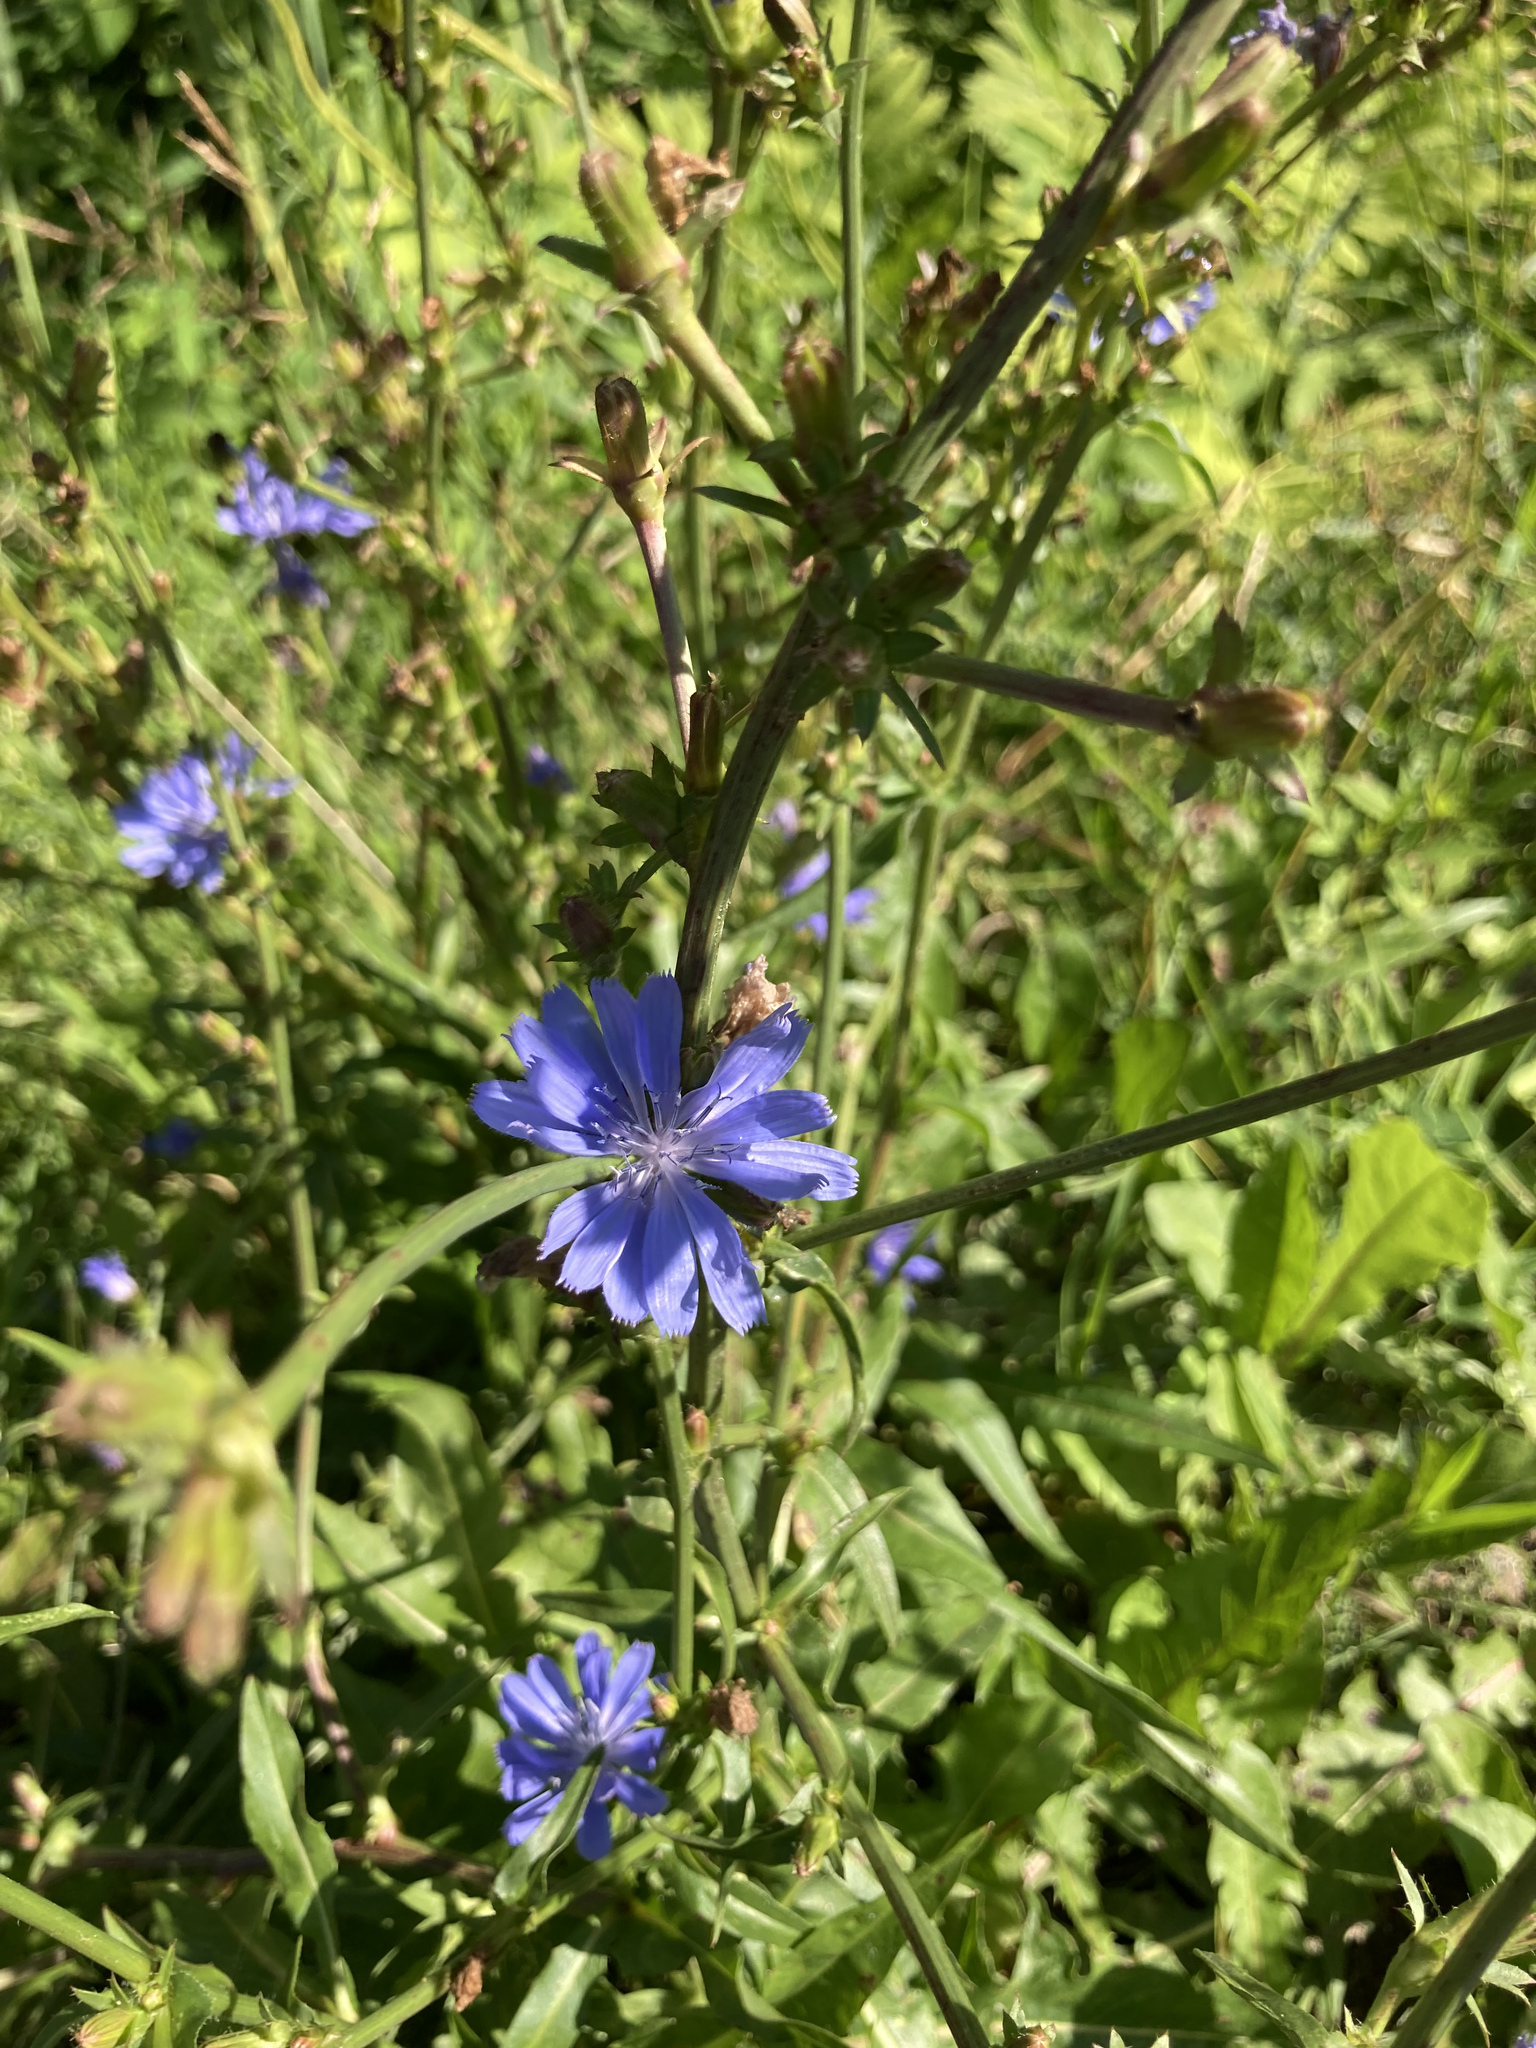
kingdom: Plantae
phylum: Tracheophyta
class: Magnoliopsida
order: Asterales
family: Asteraceae
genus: Cichorium
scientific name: Cichorium intybus
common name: Chicory
